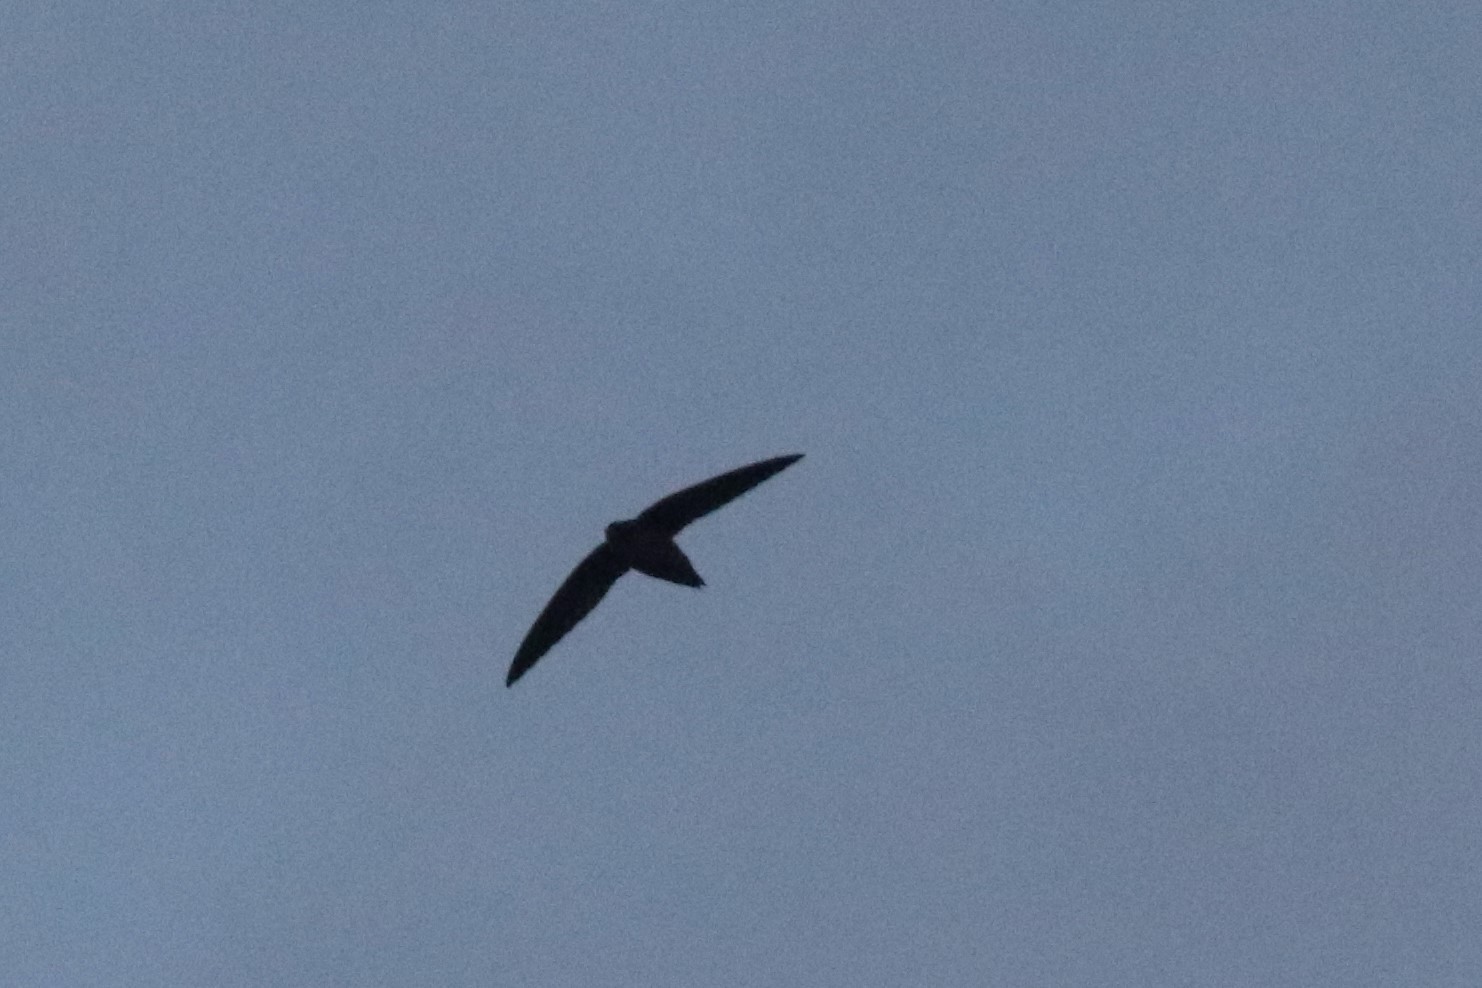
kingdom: Animalia
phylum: Chordata
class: Aves
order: Apodiformes
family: Apodidae
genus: Chaetura
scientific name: Chaetura pelagica
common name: Chimney swift
